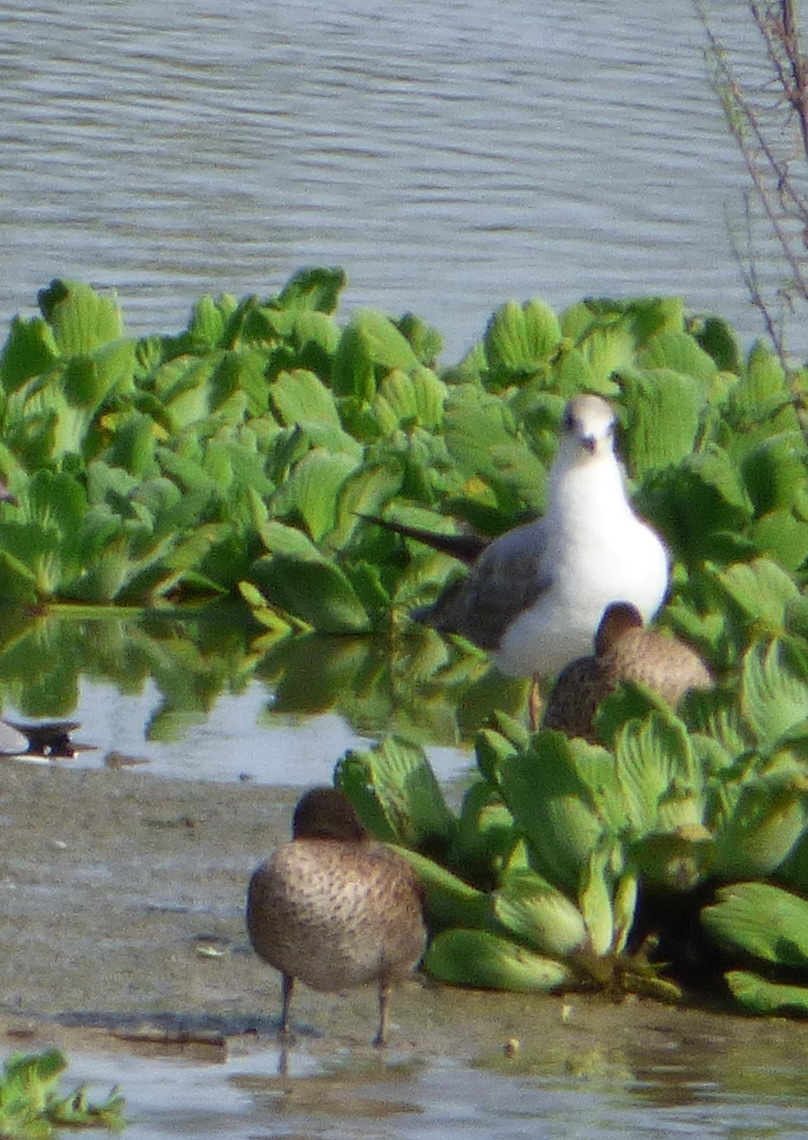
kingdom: Animalia
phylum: Chordata
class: Aves
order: Charadriiformes
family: Laridae
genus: Chroicocephalus
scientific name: Chroicocephalus maculipennis
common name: Brown-hooded gull
